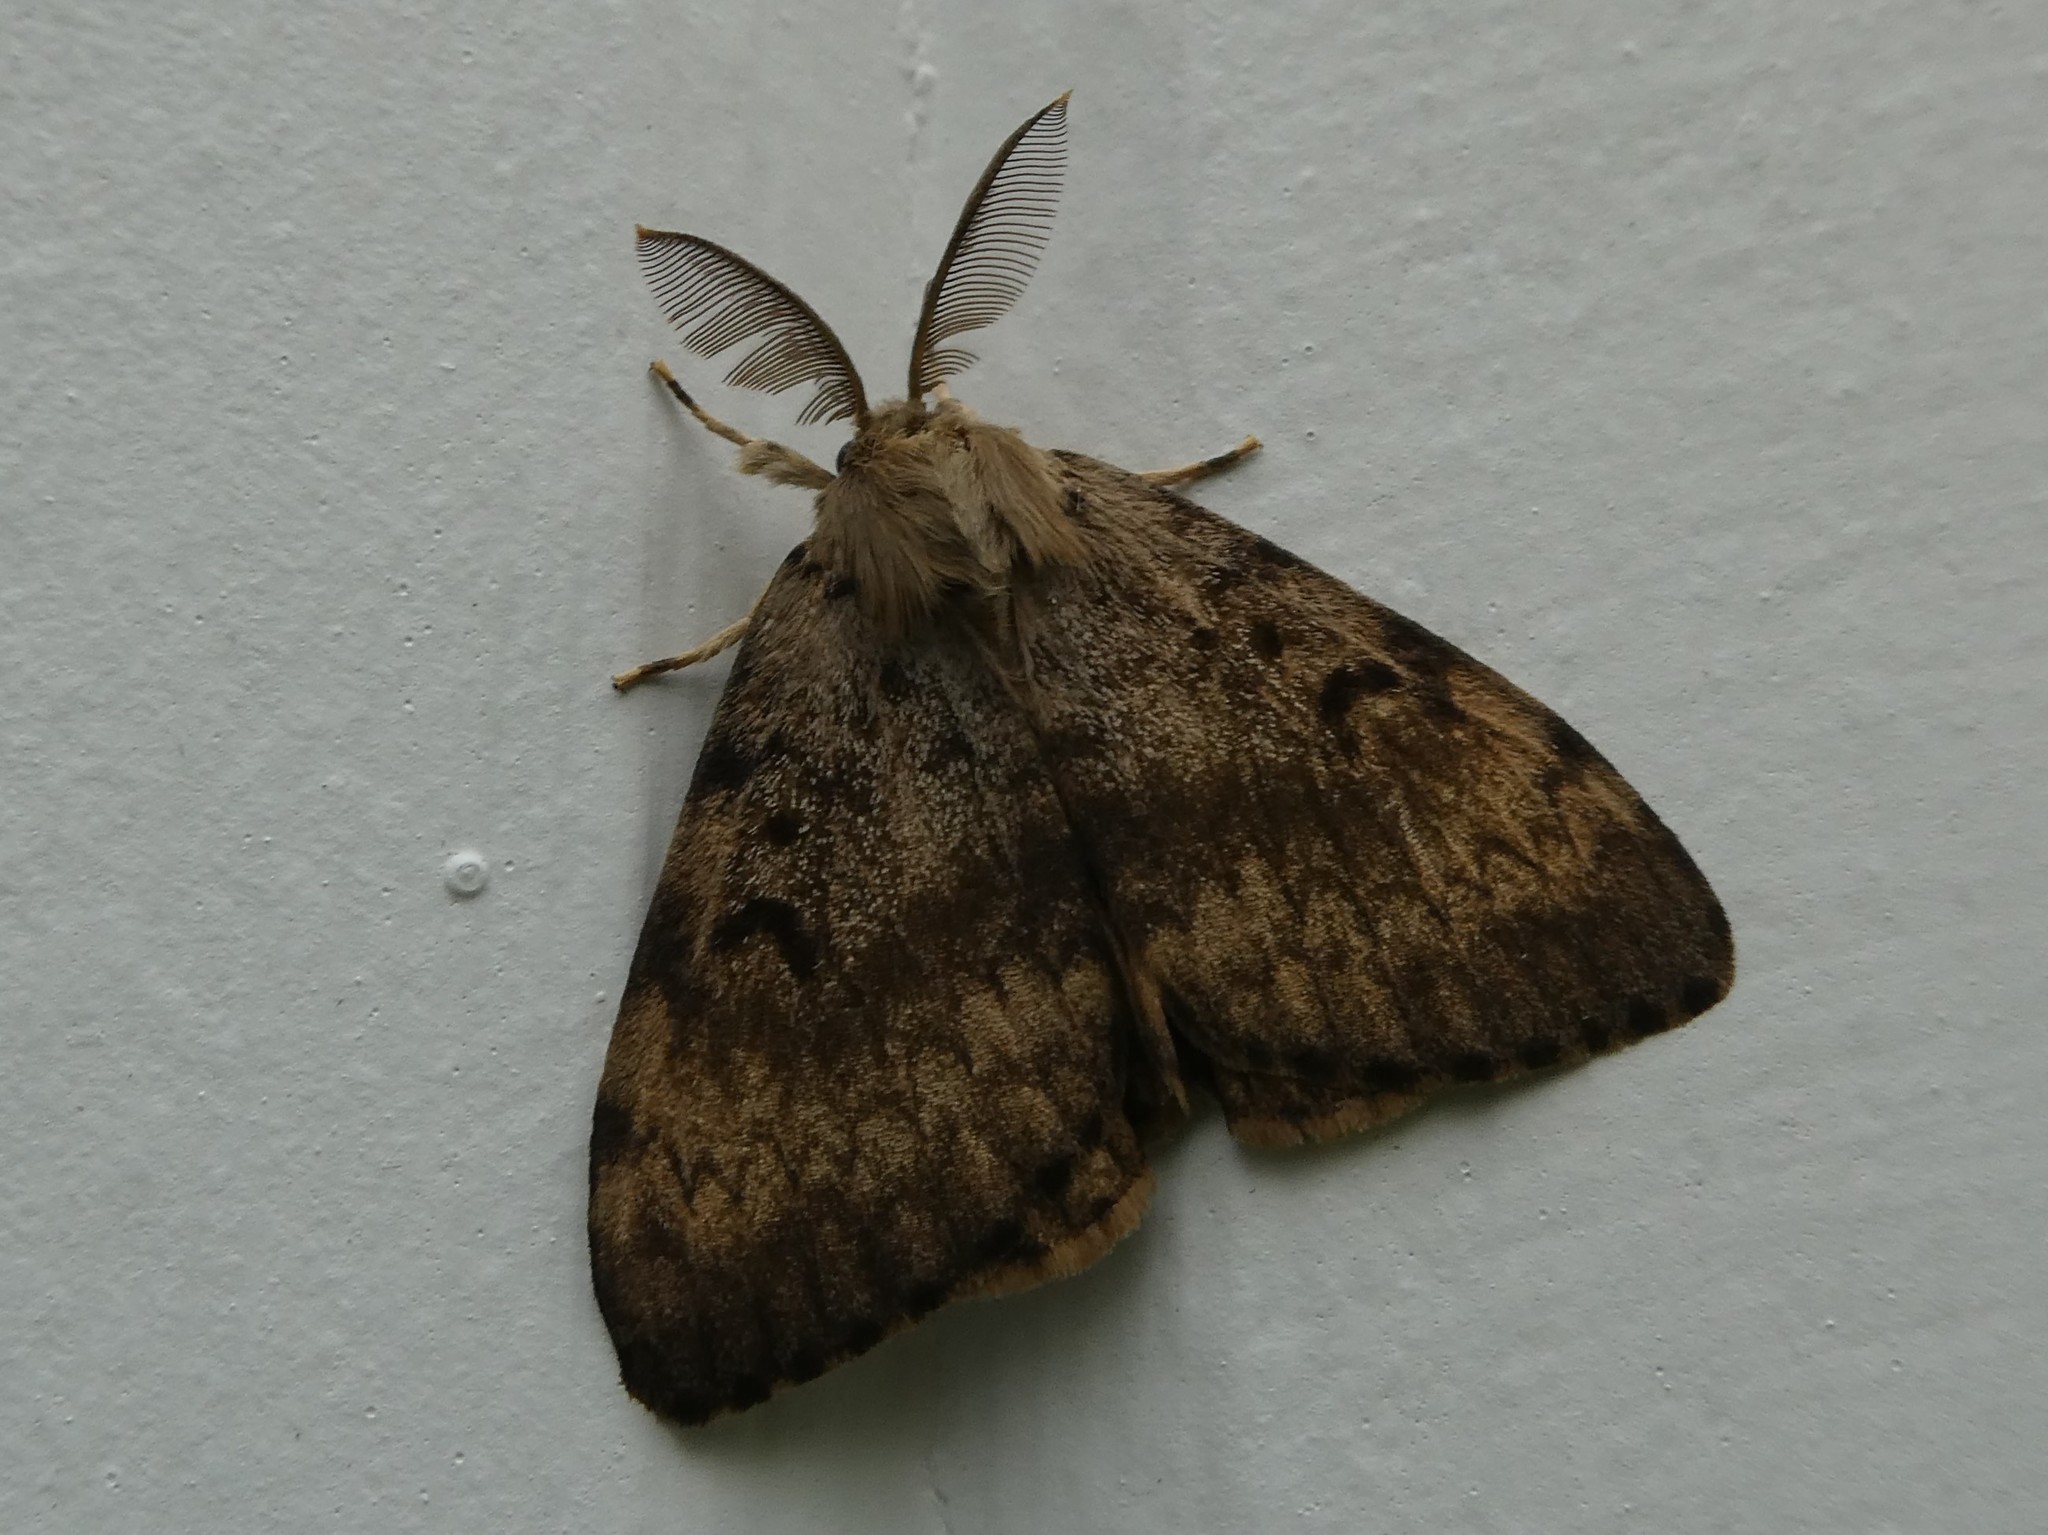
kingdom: Animalia
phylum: Arthropoda
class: Insecta
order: Lepidoptera
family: Erebidae
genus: Lymantria
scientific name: Lymantria dispar
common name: Gypsy moth
